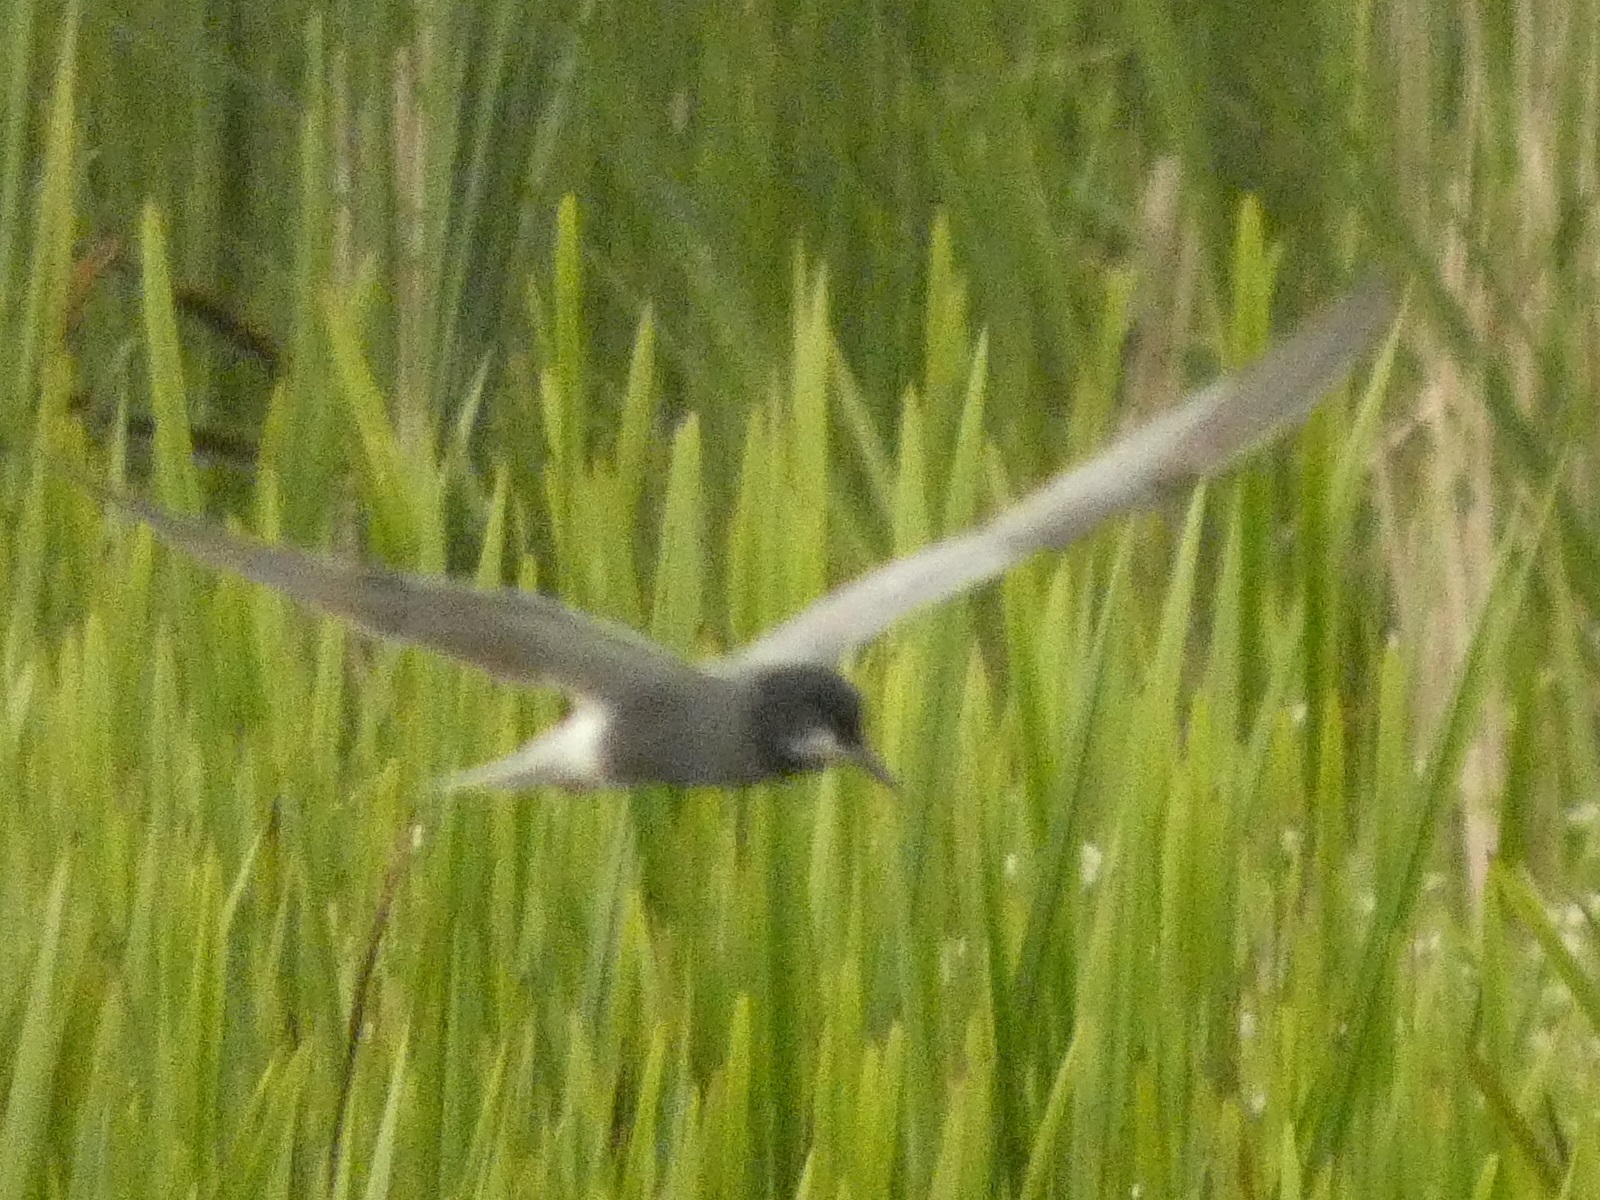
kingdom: Animalia
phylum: Chordata
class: Aves
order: Charadriiformes
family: Laridae
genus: Chlidonias
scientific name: Chlidonias niger
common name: Black tern
